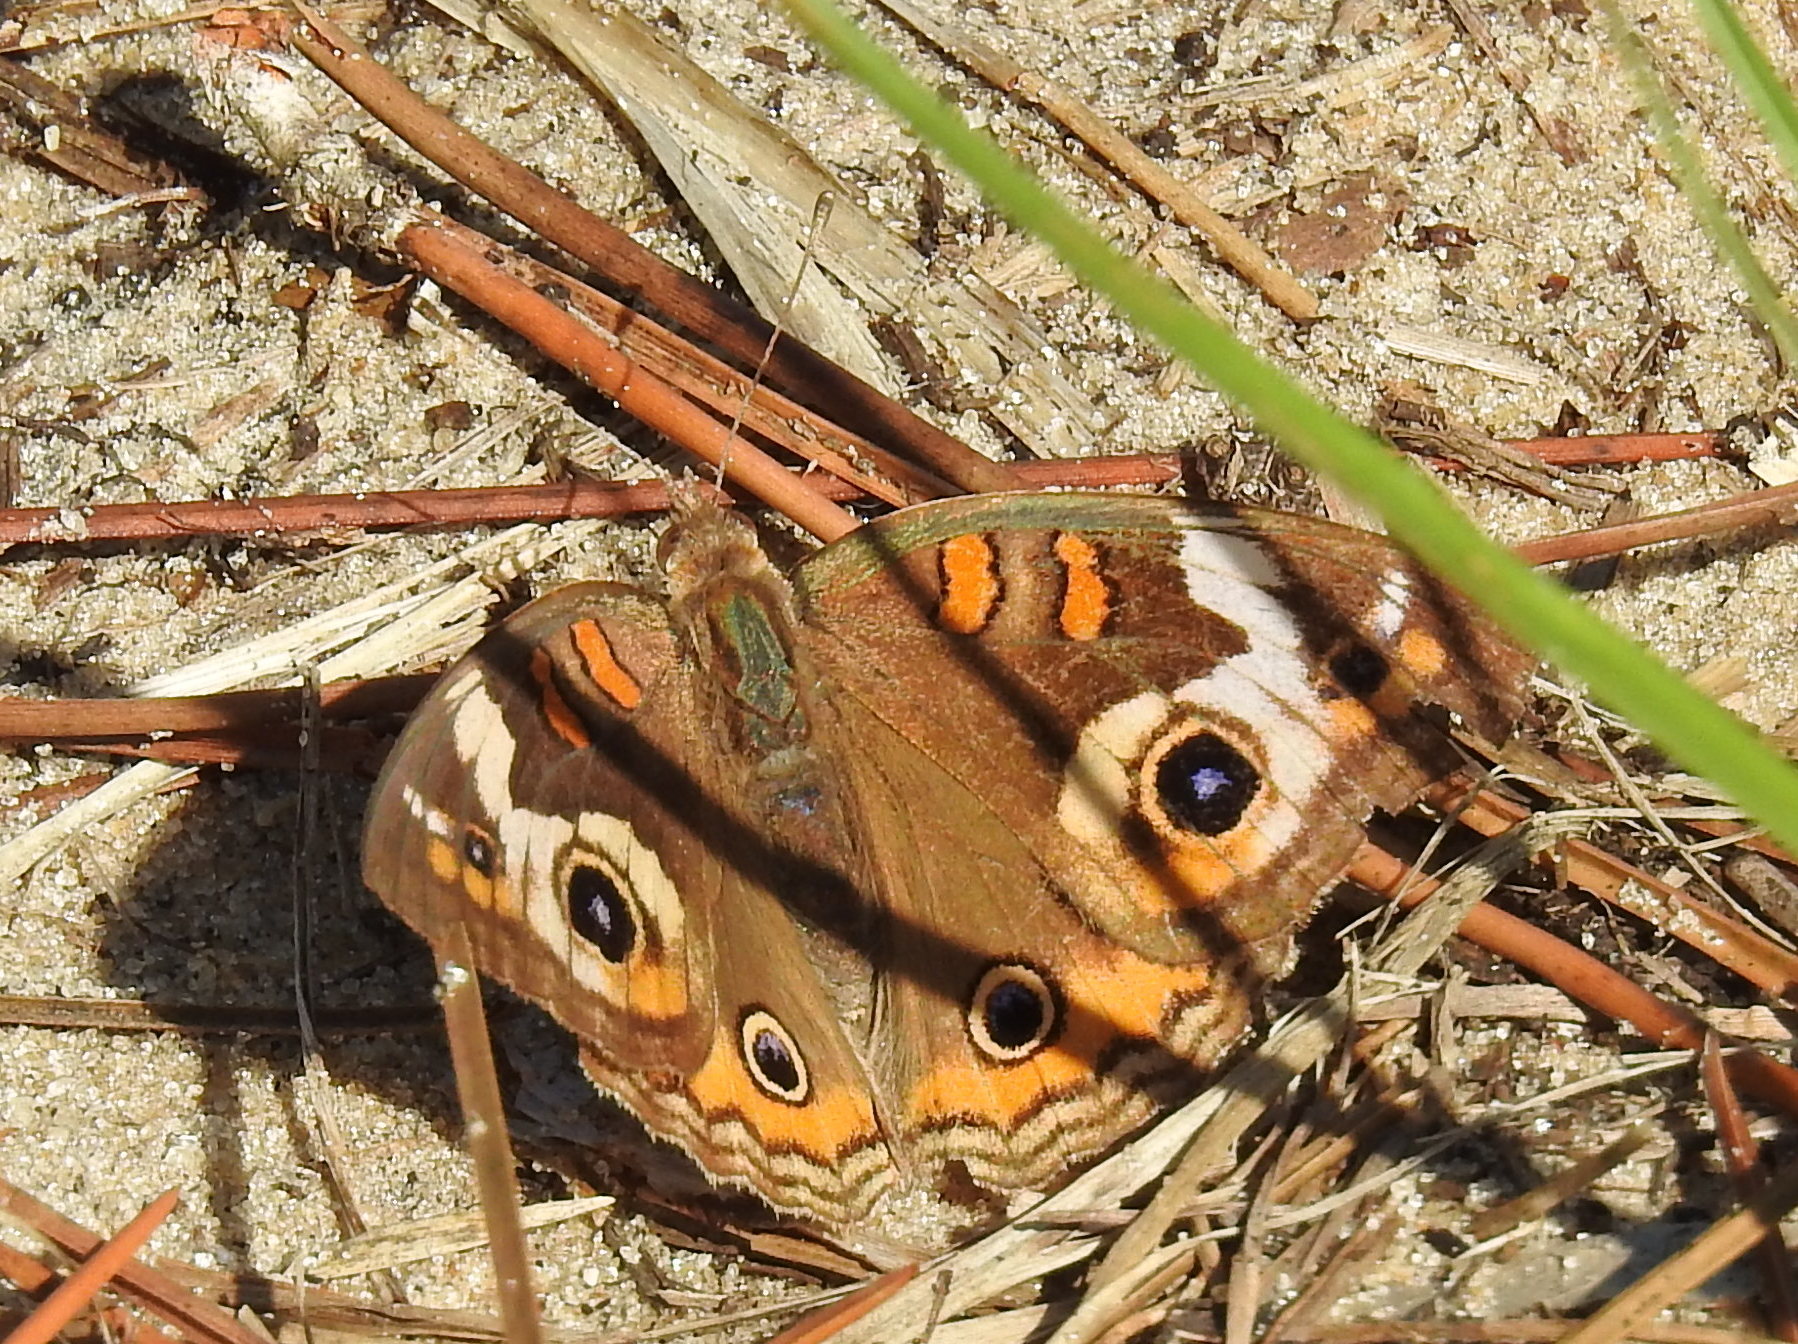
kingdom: Animalia
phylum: Arthropoda
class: Insecta
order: Lepidoptera
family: Nymphalidae
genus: Junonia
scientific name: Junonia coenia
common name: Common buckeye
